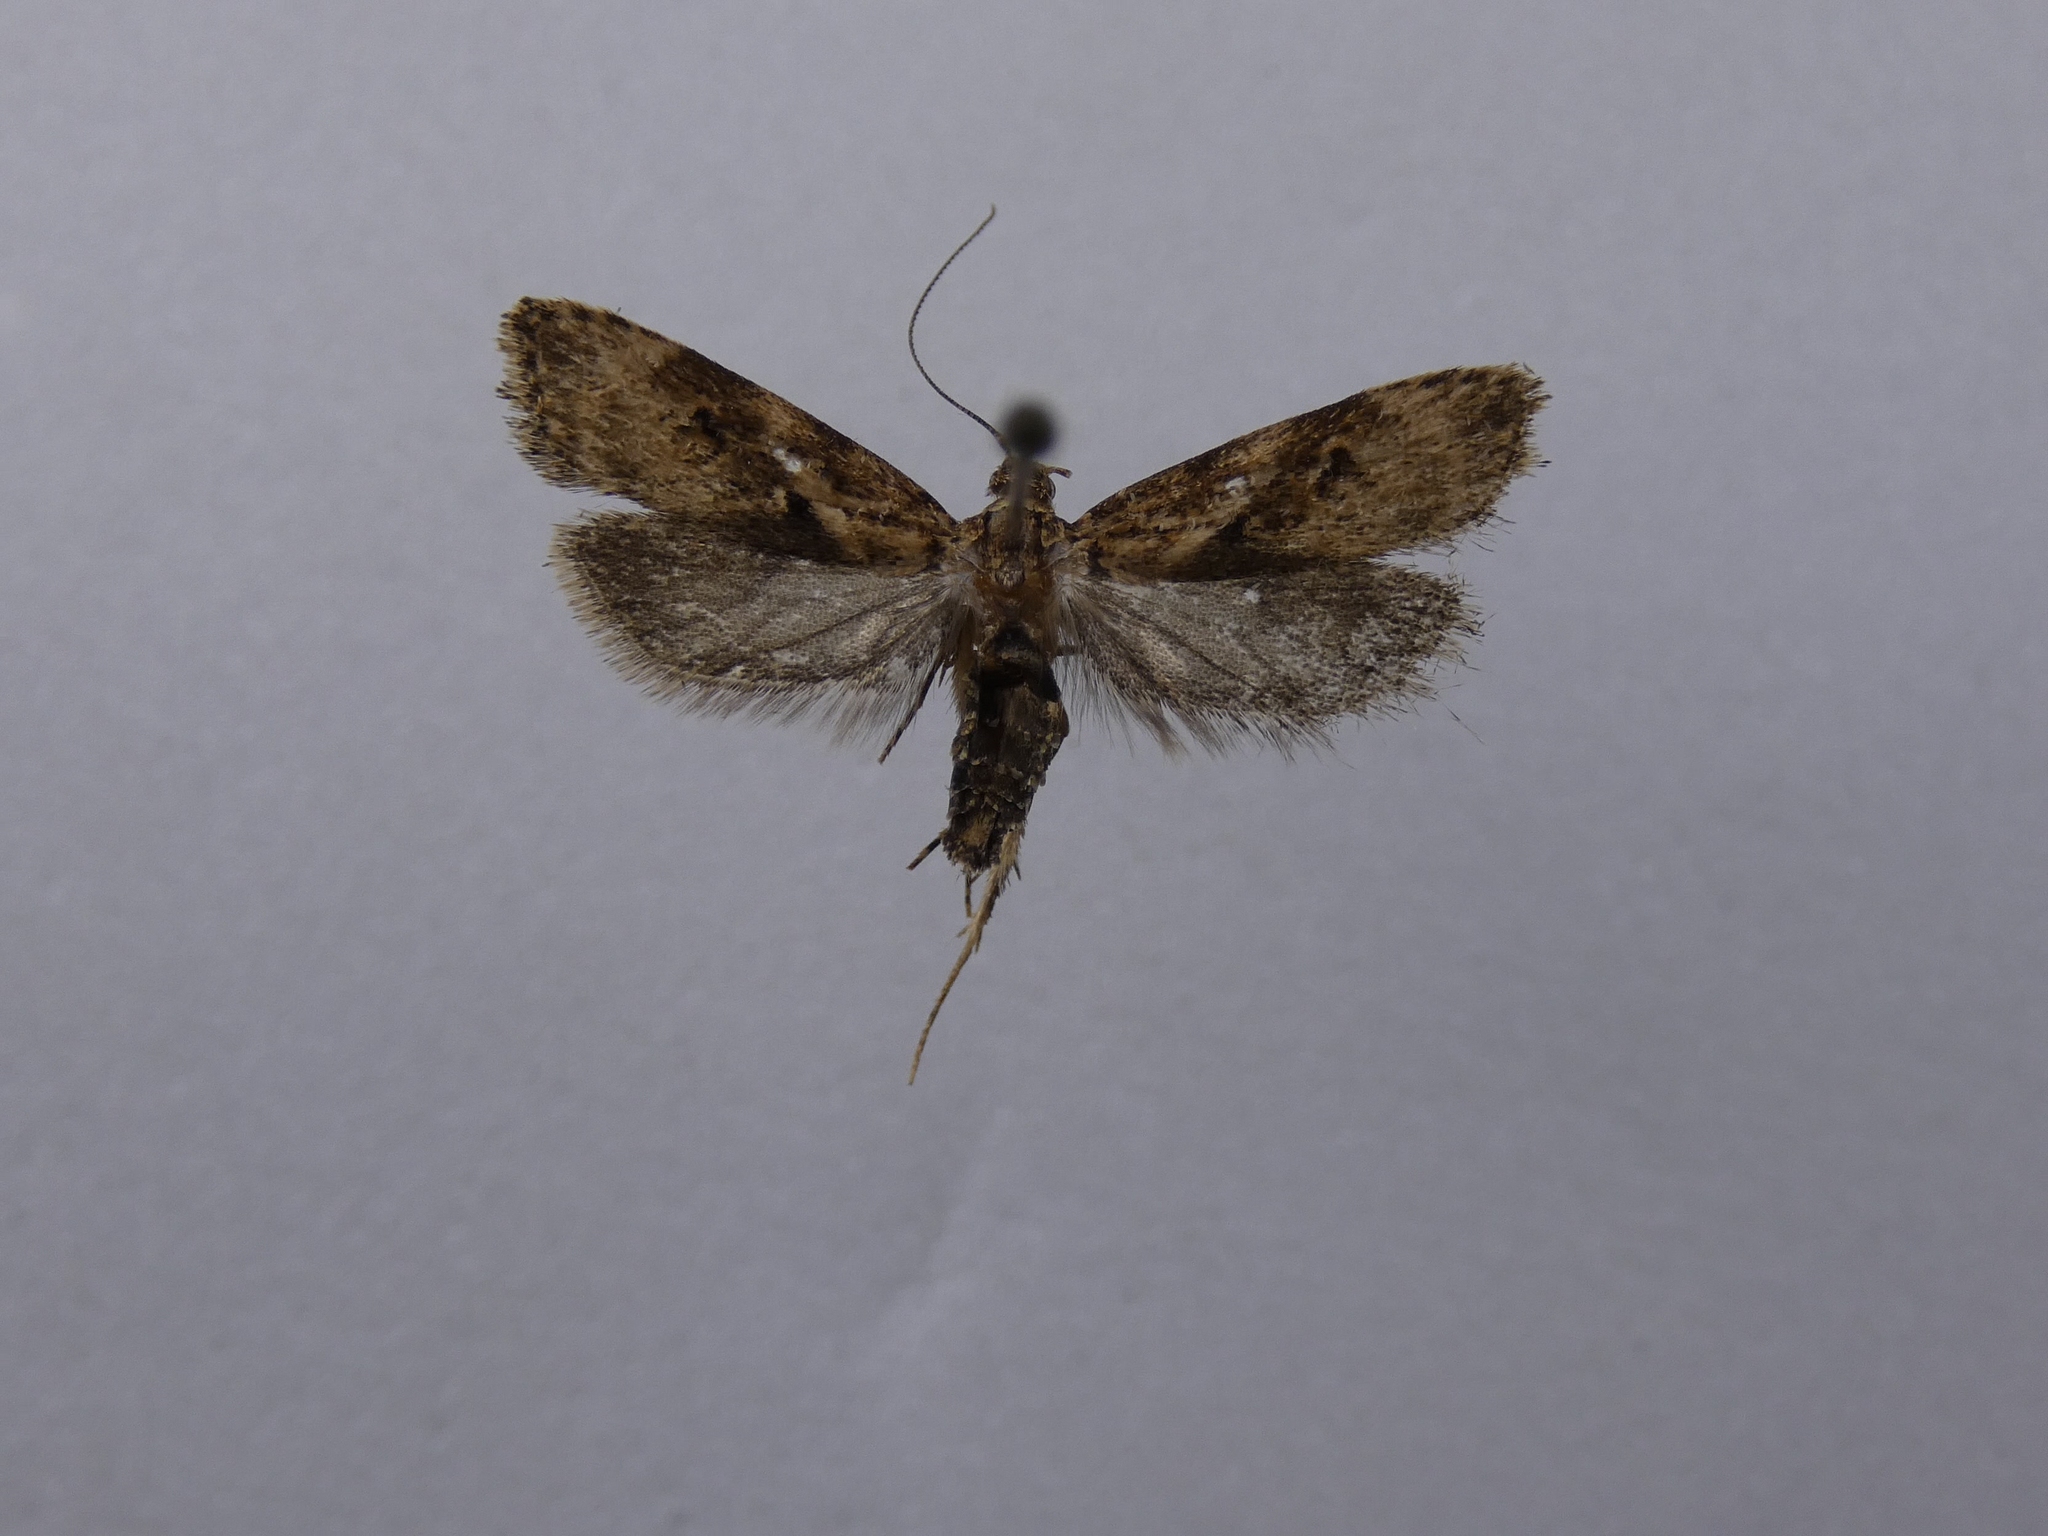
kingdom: Animalia
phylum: Arthropoda
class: Insecta
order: Lepidoptera
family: Oecophoridae
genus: Izatha
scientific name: Izatha austera
